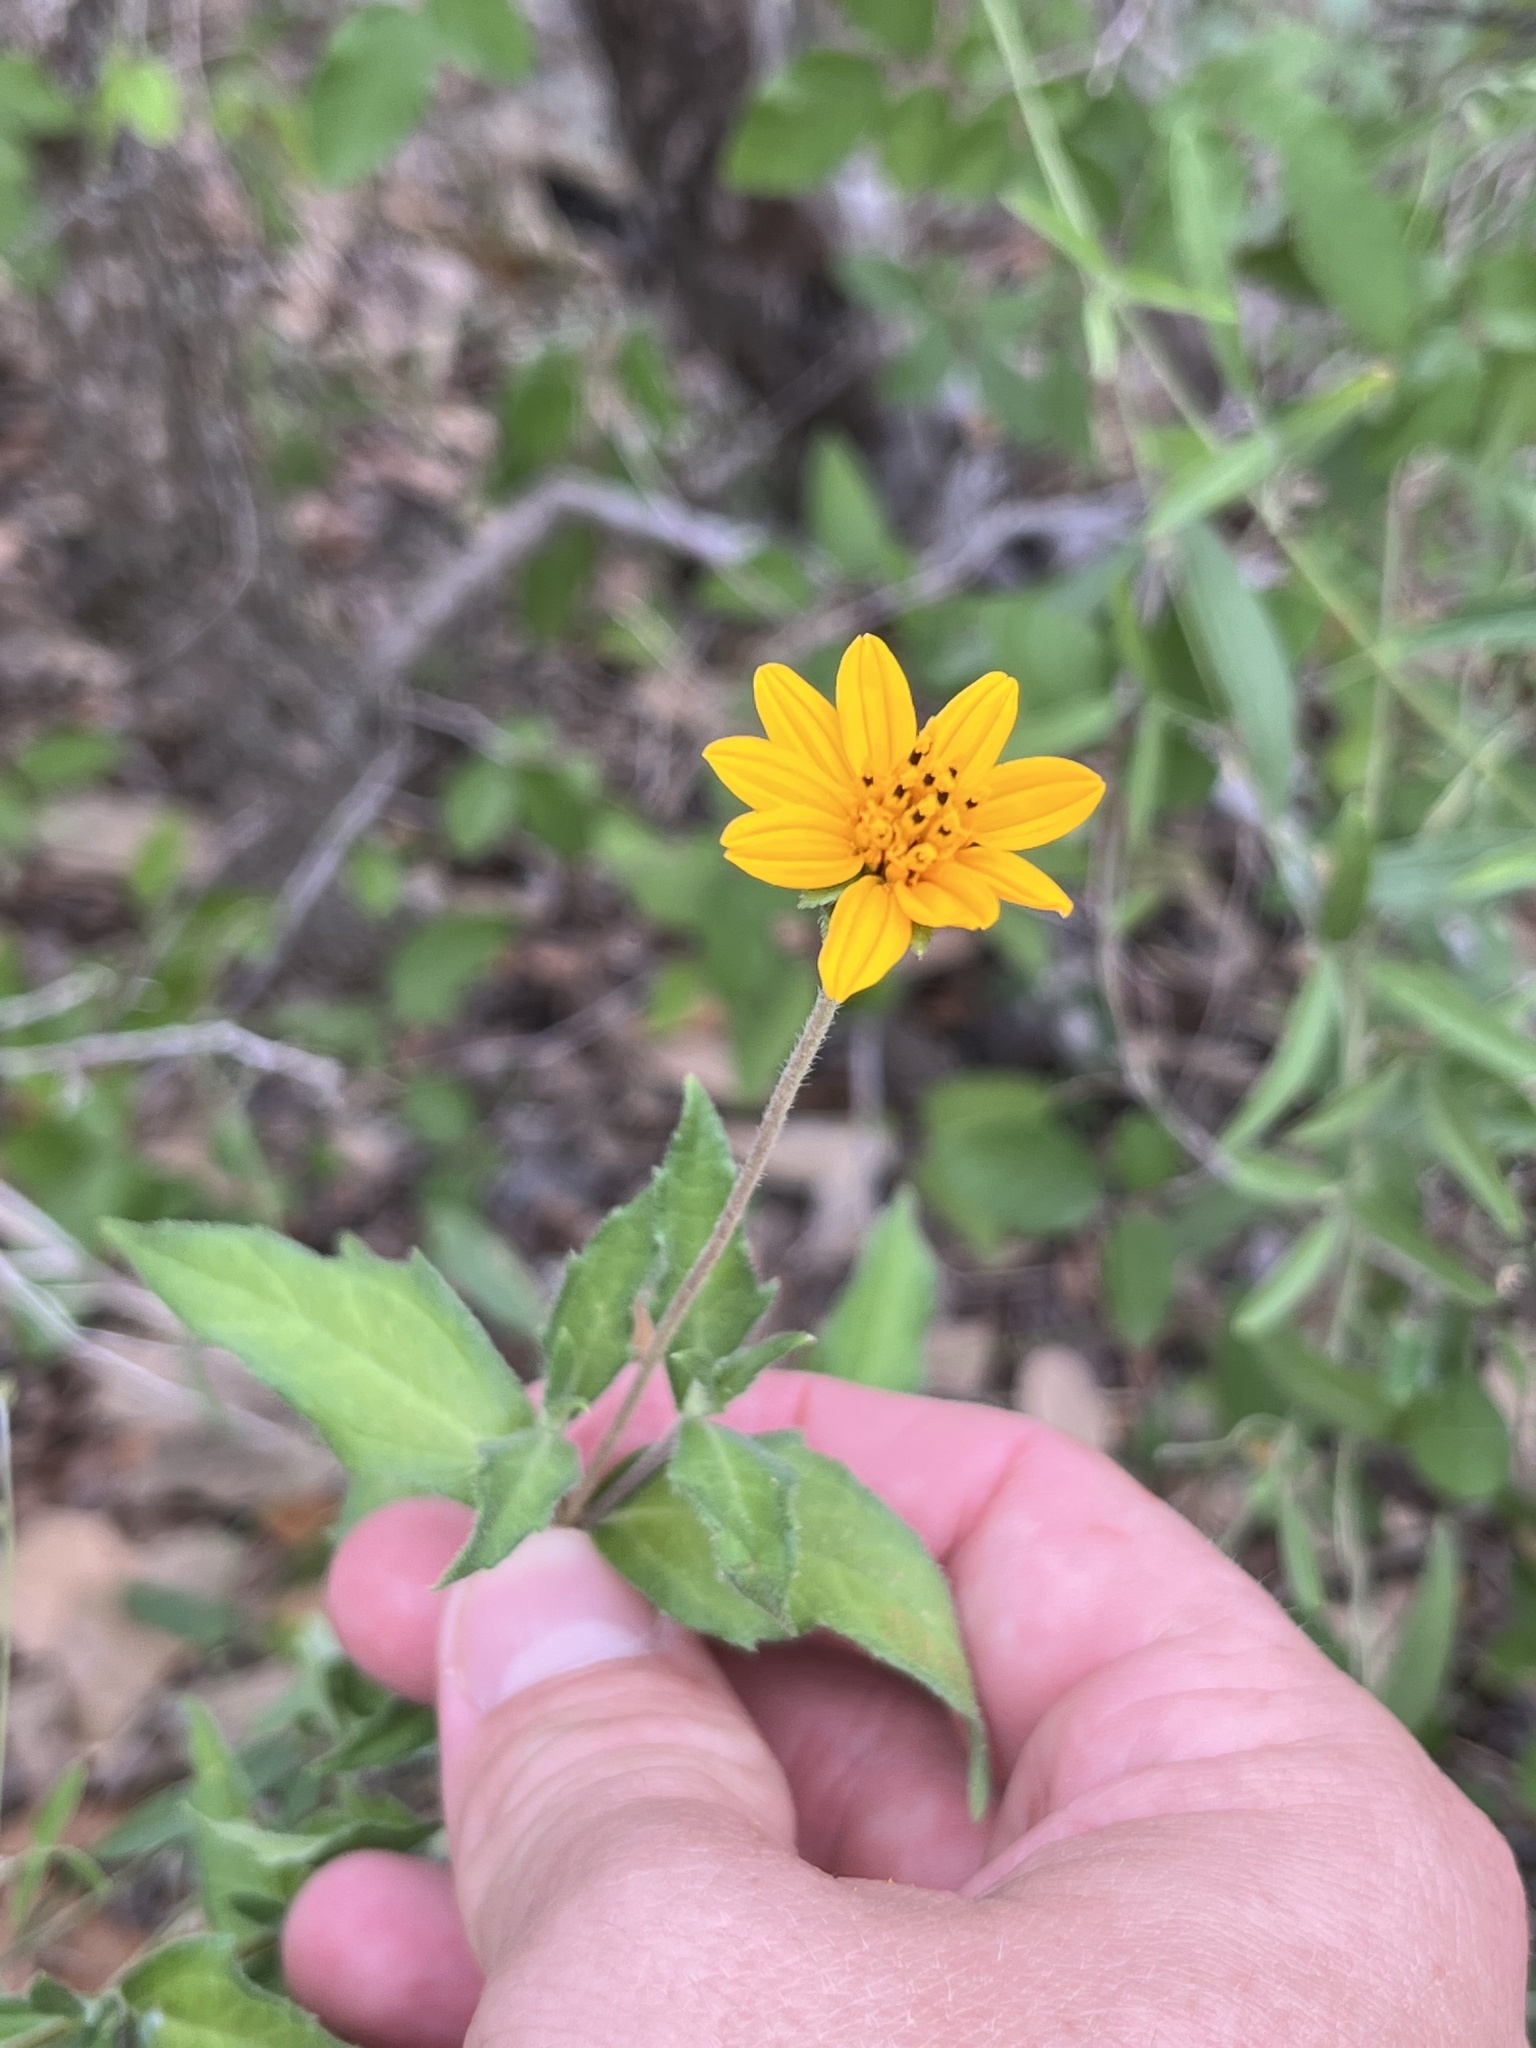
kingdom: Plantae
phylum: Tracheophyta
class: Magnoliopsida
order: Asterales
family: Asteraceae
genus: Wedelia
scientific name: Wedelia acapulcensis
